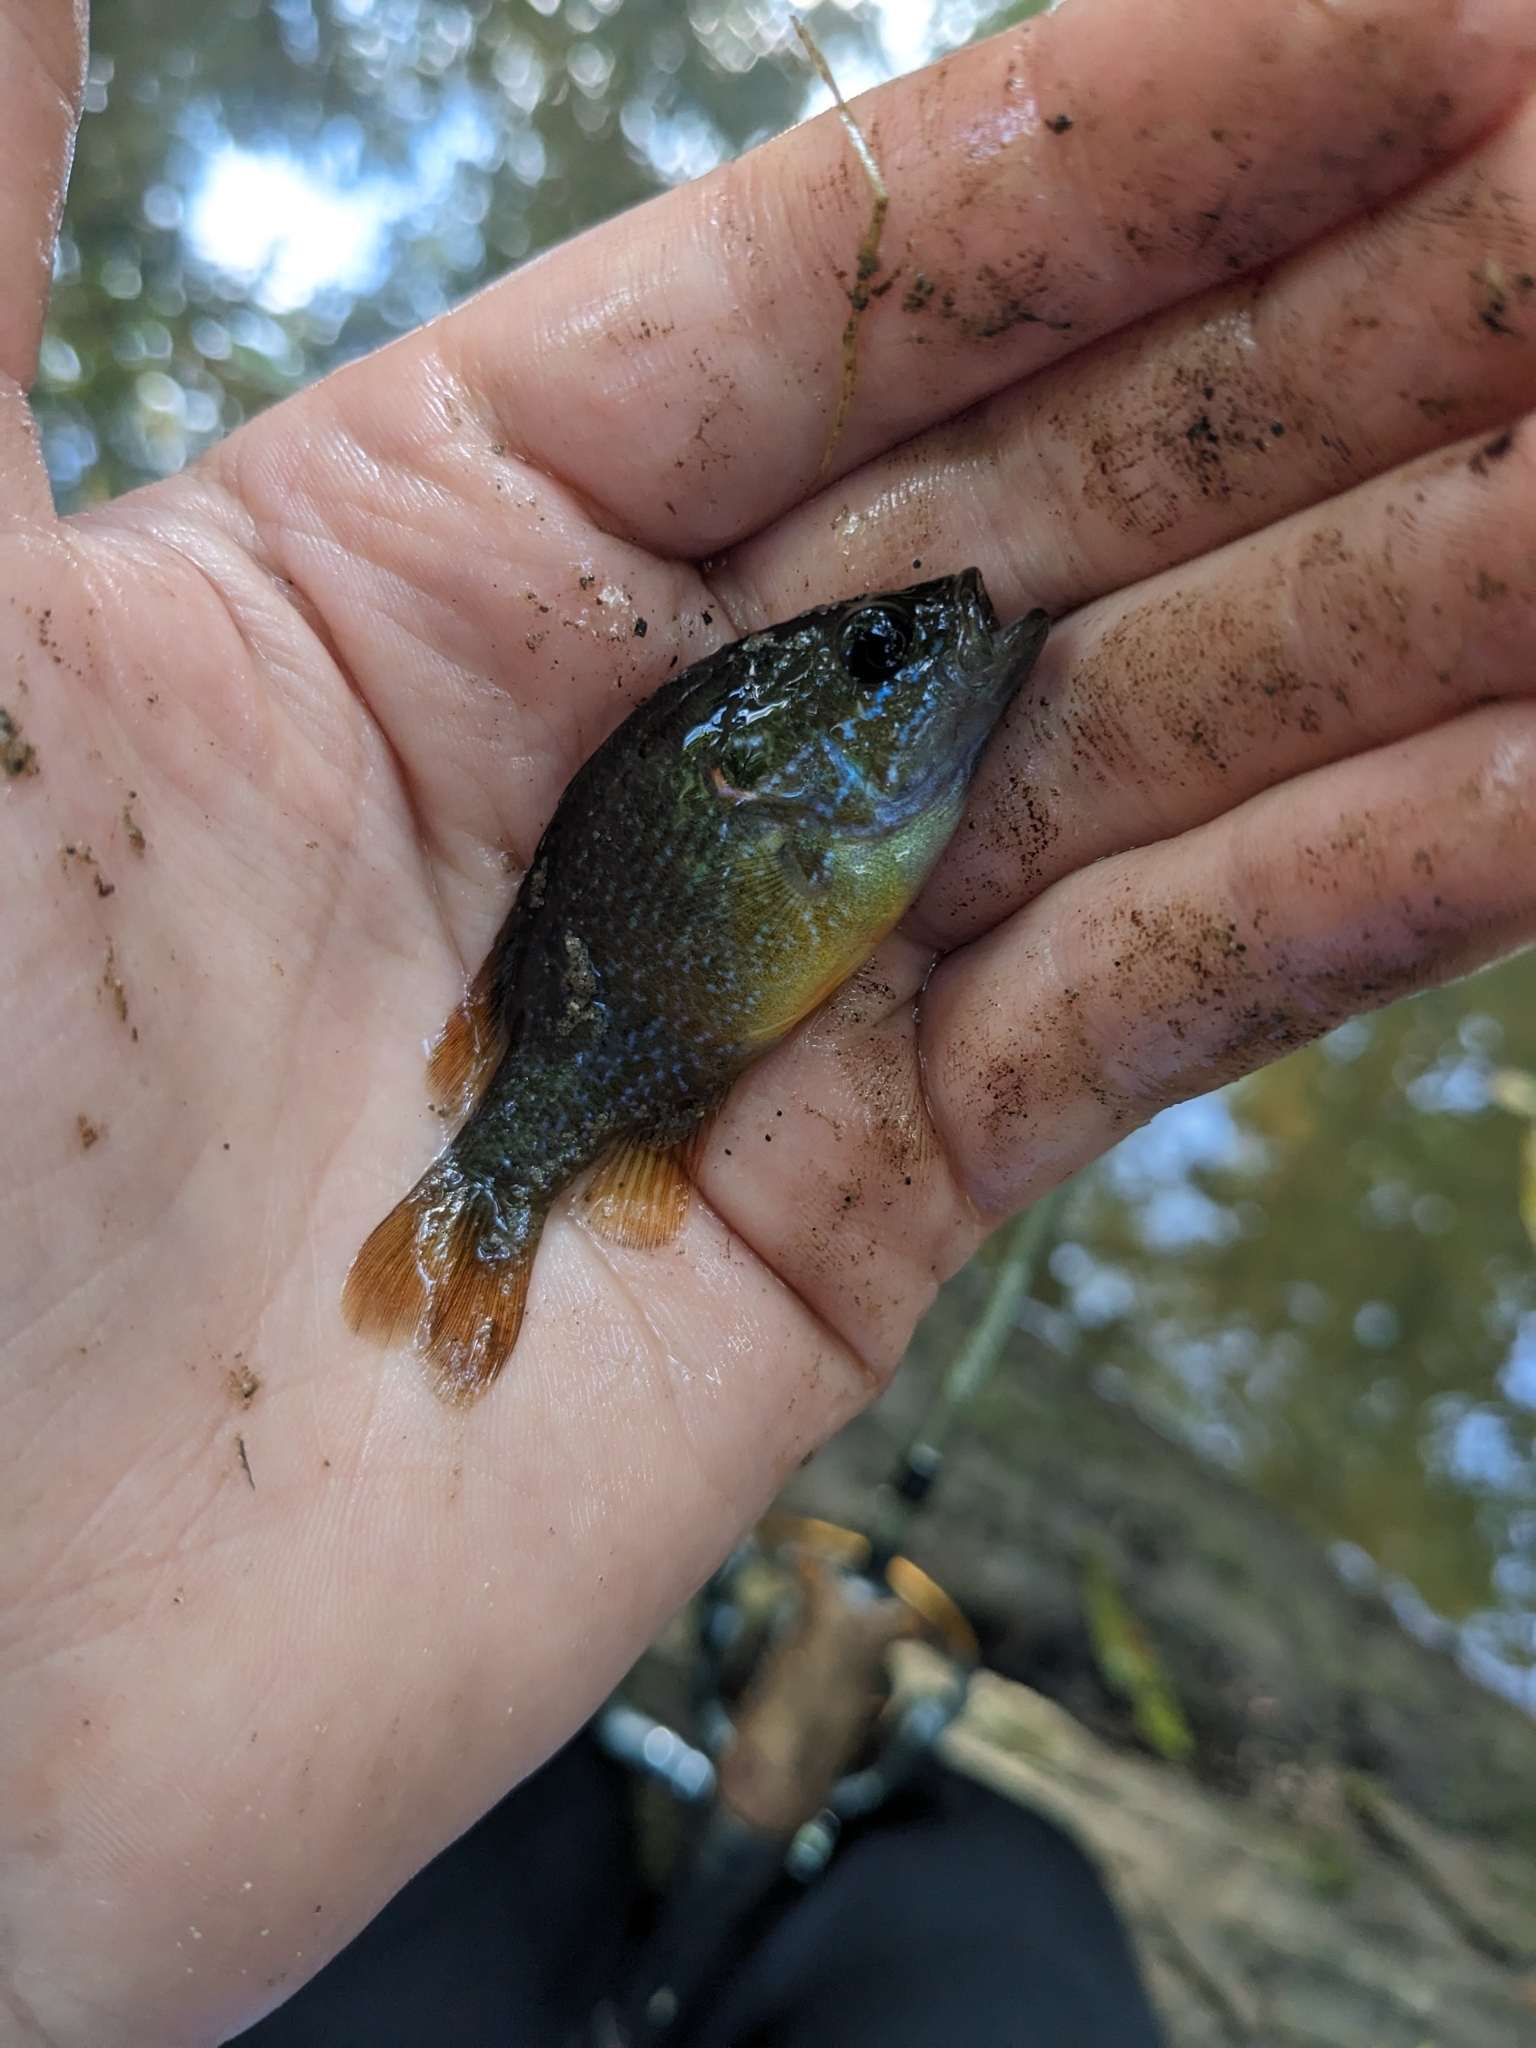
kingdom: Animalia
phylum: Chordata
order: Perciformes
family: Centrarchidae
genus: Lepomis
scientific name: Lepomis cyanellus
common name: Green sunfish
